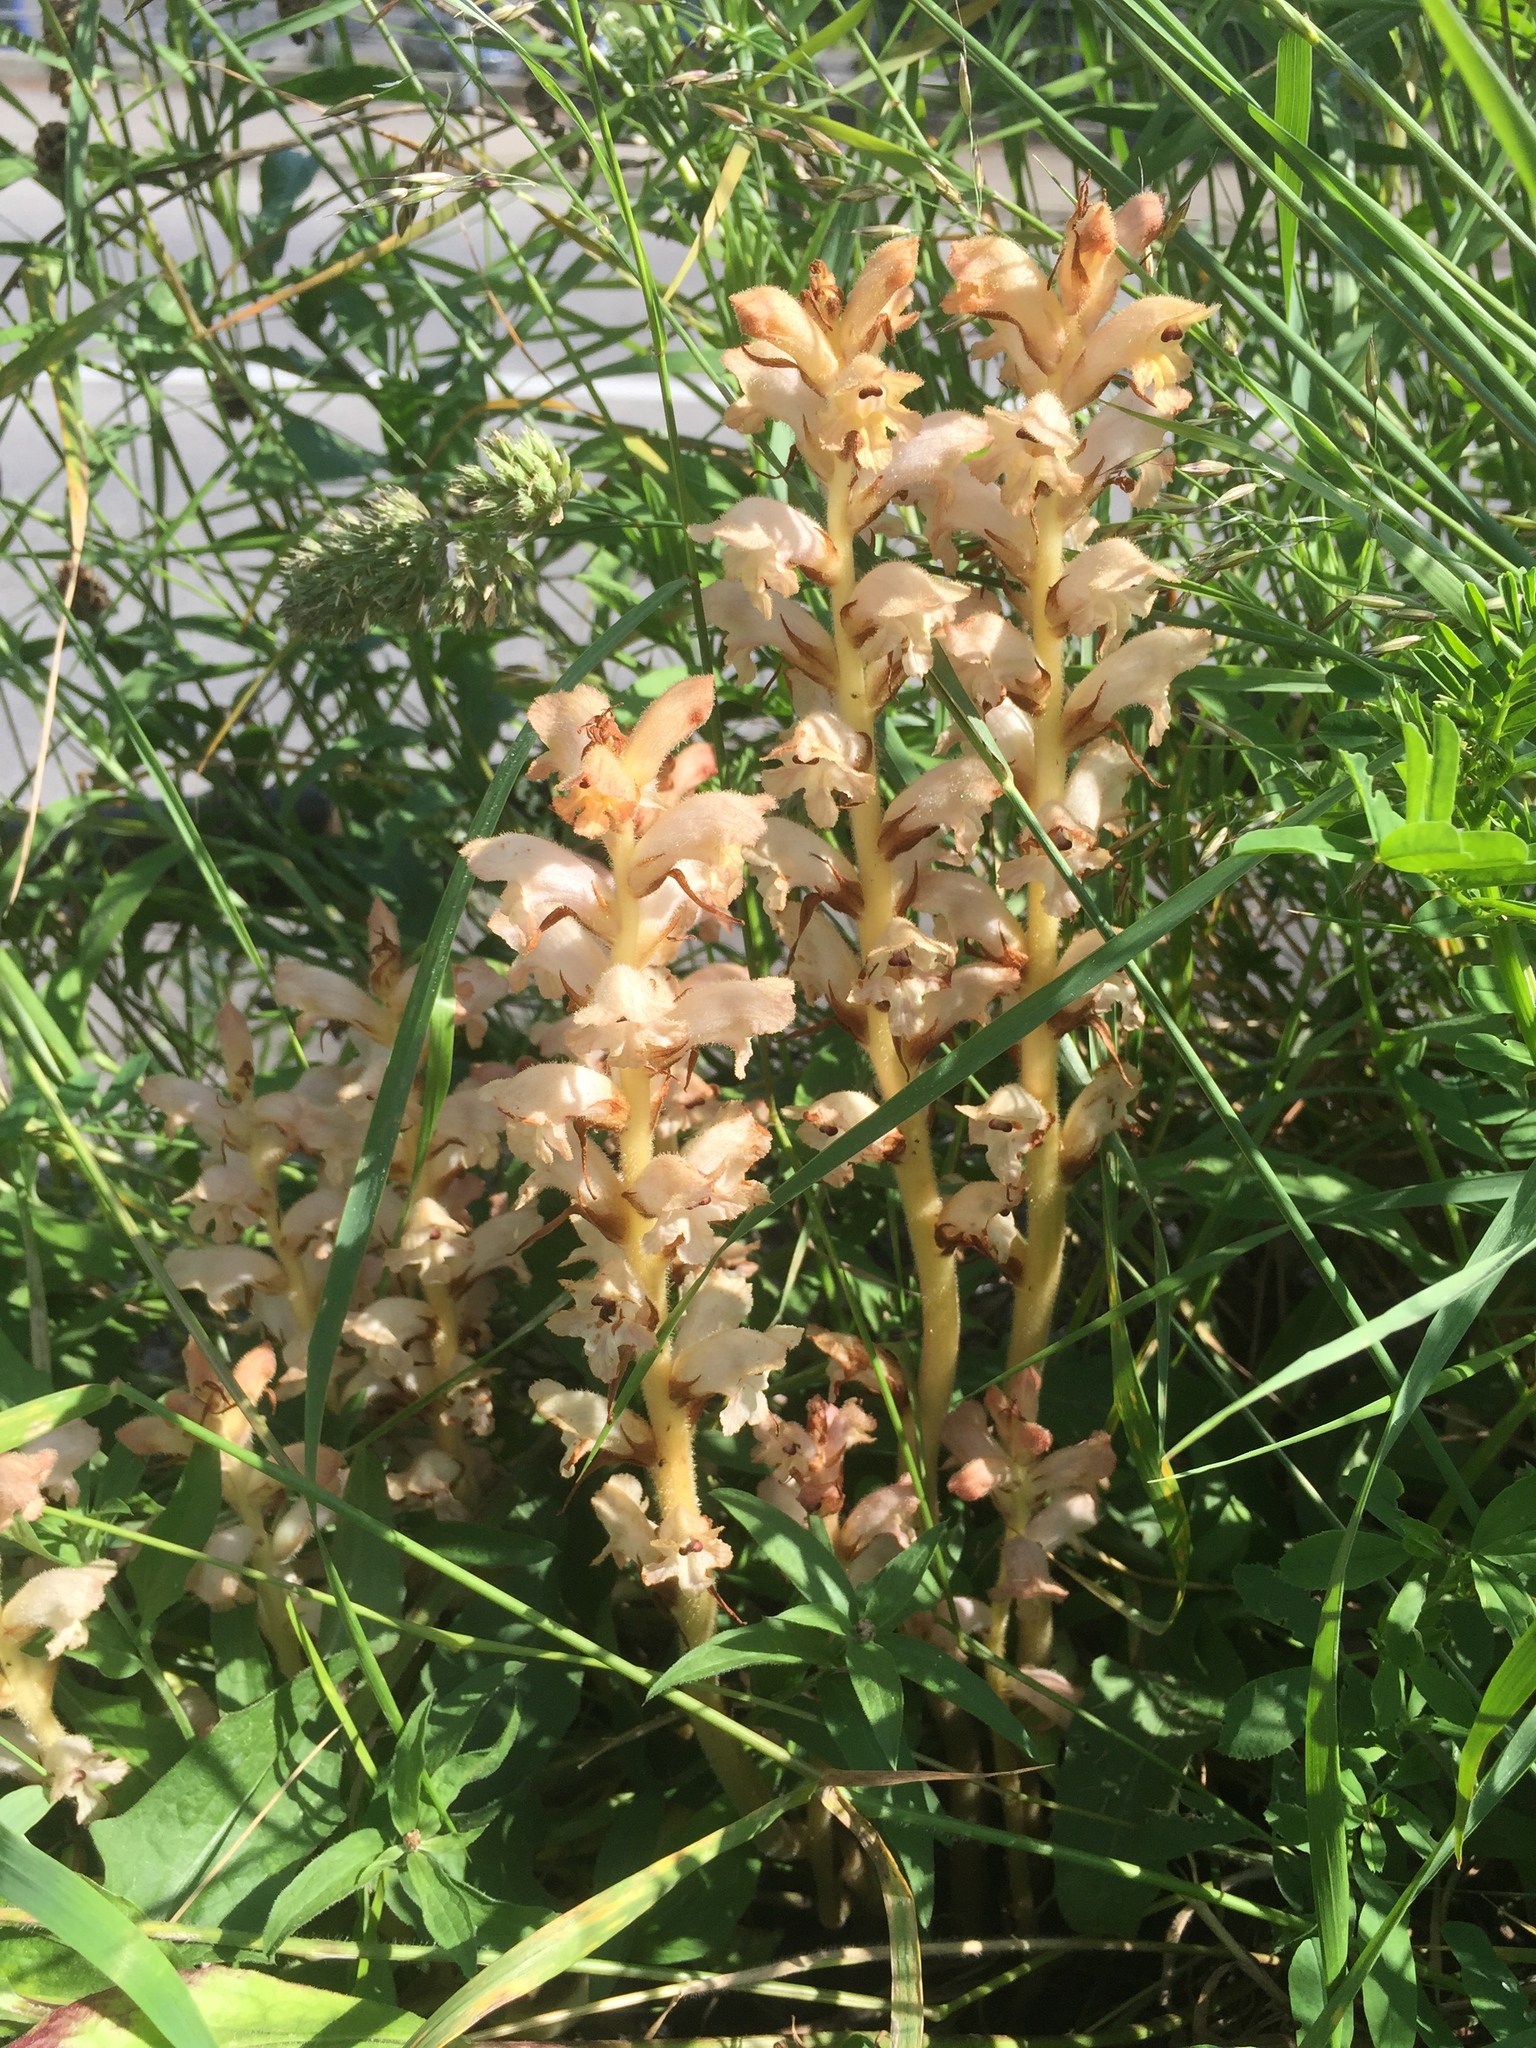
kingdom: Plantae
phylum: Tracheophyta
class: Magnoliopsida
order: Lamiales
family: Orobanchaceae
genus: Orobanche
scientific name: Orobanche caryophyllacea
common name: Bedstraw broomrape
